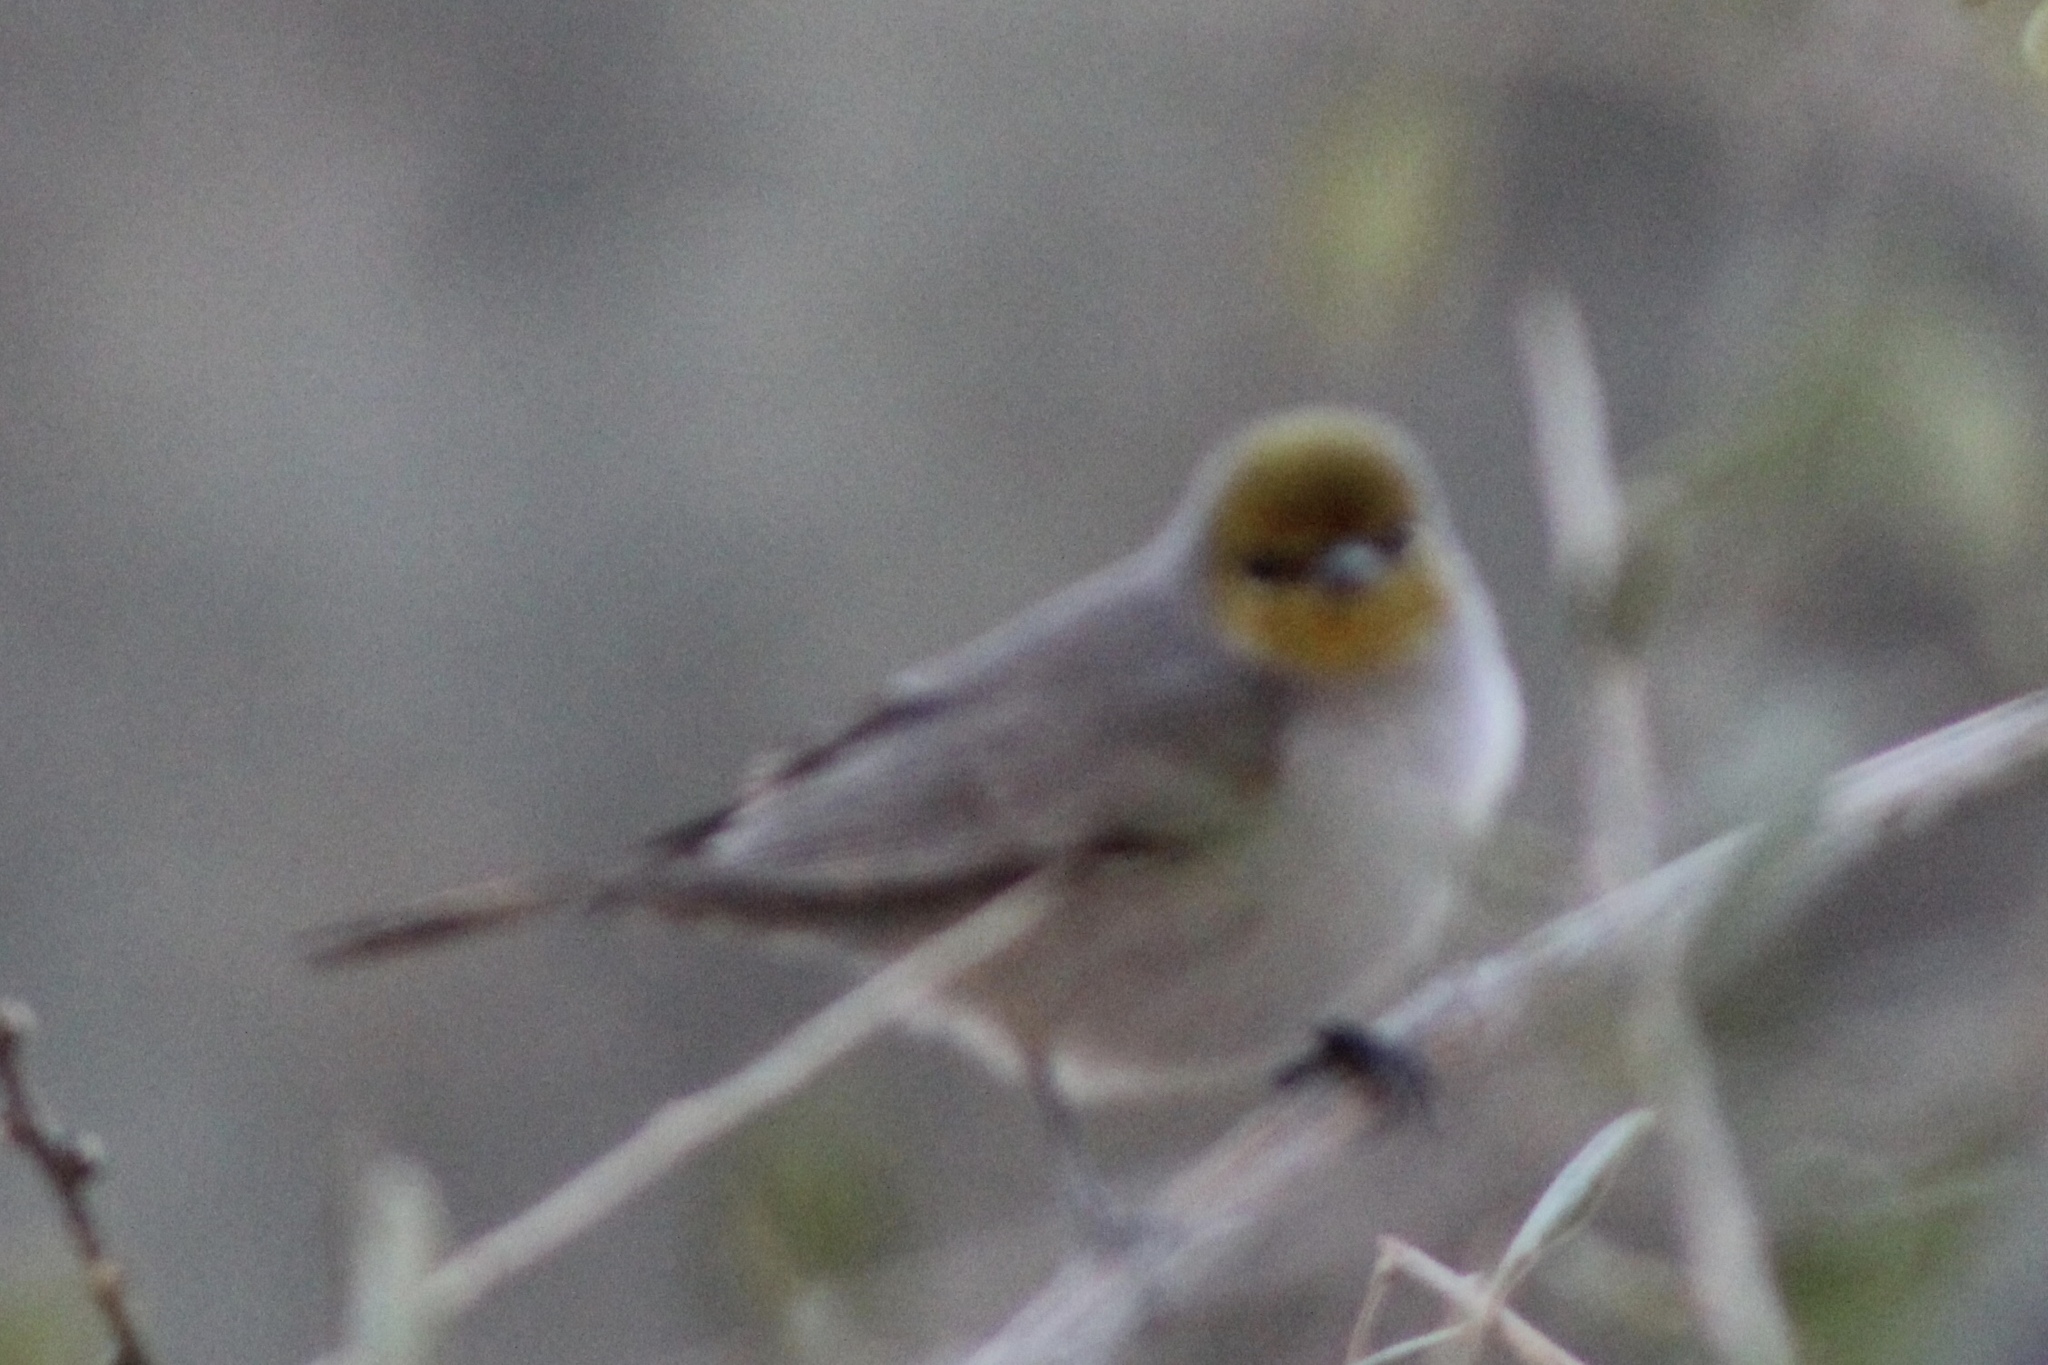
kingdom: Animalia
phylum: Chordata
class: Aves
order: Passeriformes
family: Remizidae
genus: Auriparus
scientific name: Auriparus flaviceps
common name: Verdin
